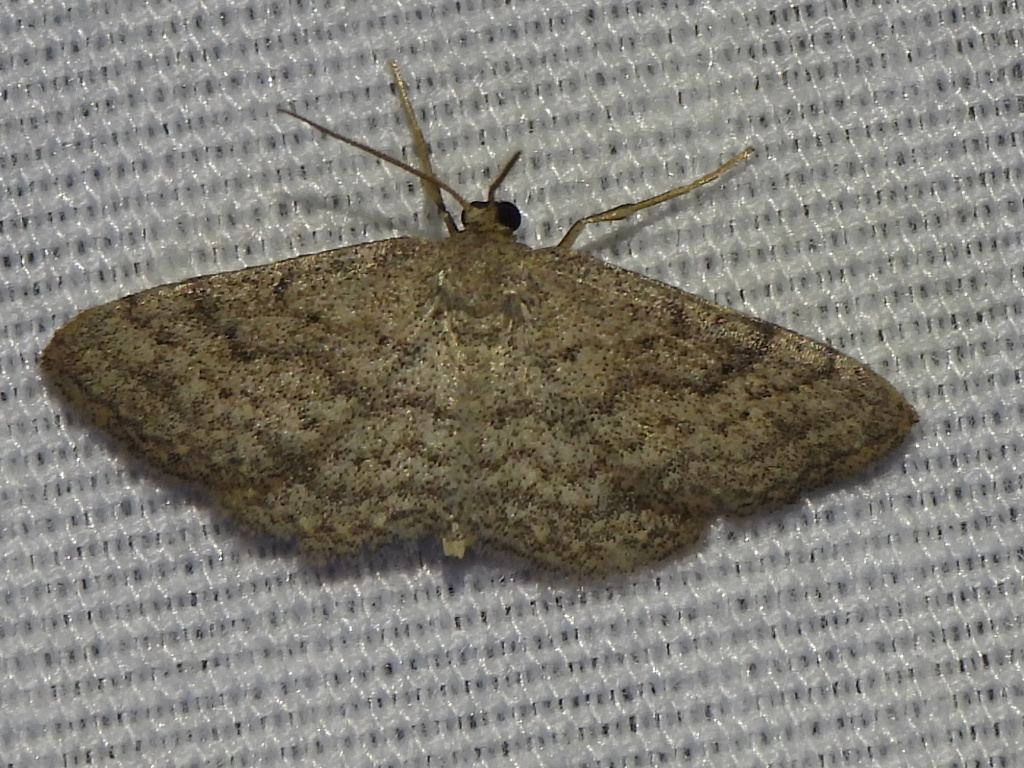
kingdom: Animalia
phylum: Arthropoda
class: Insecta
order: Lepidoptera
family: Geometridae
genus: Lobocleta
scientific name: Lobocleta ossularia
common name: Drab brown wave
